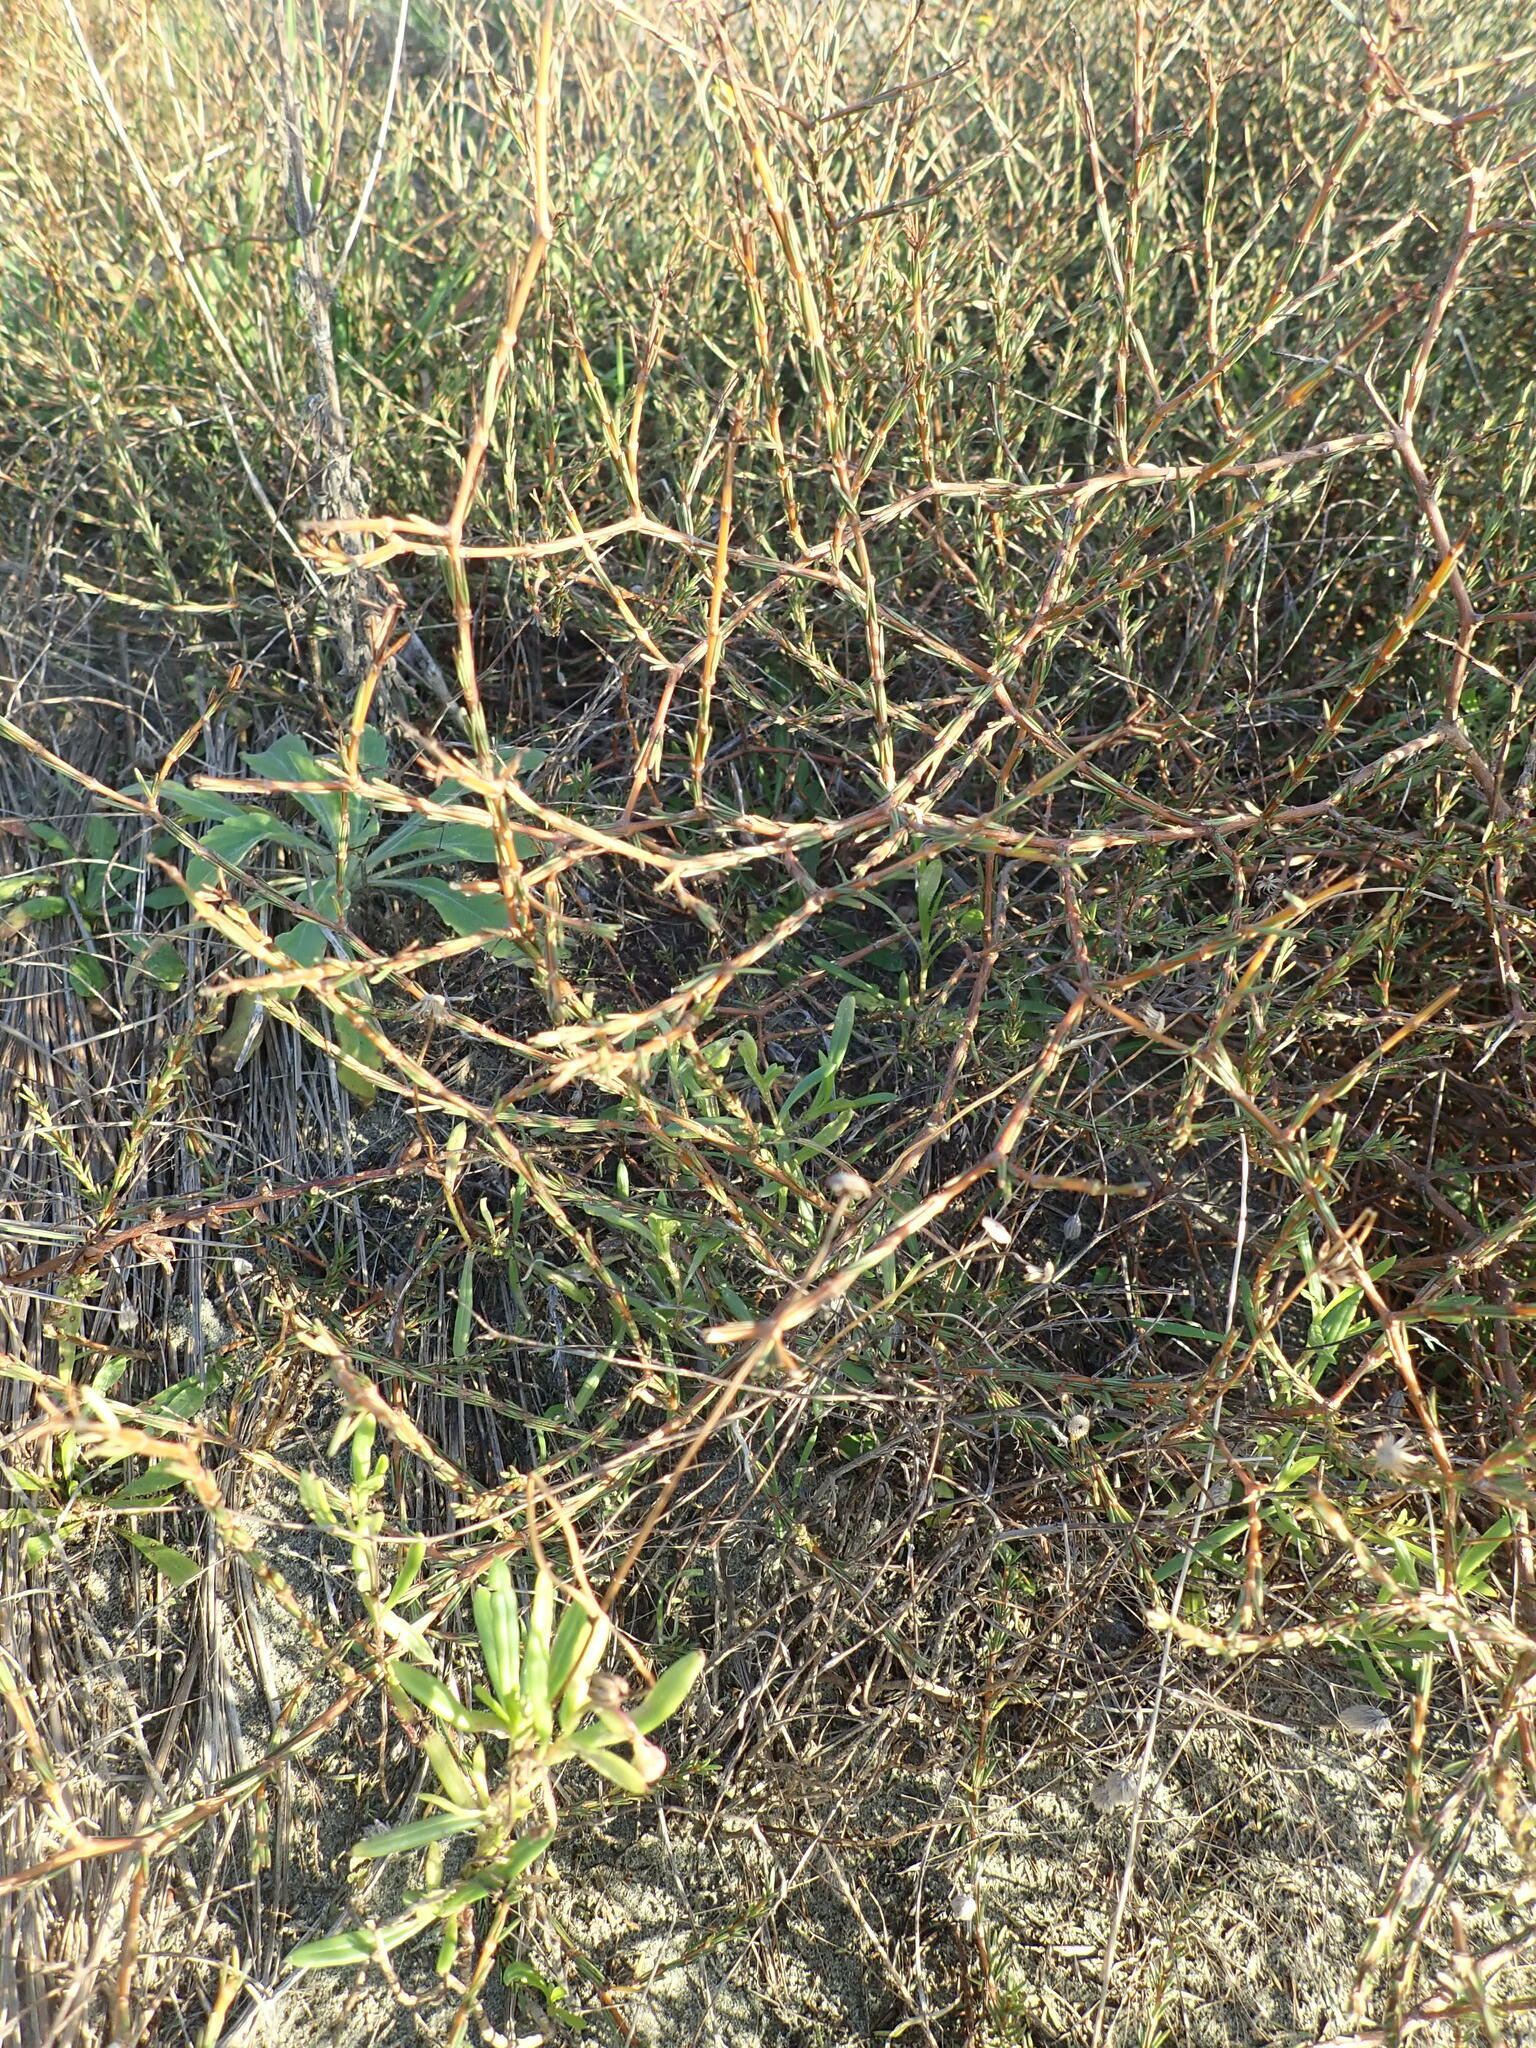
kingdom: Plantae
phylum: Tracheophyta
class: Magnoliopsida
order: Gentianales
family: Rubiaceae
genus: Coprosma
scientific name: Coprosma acerosa
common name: Sand coprosma
